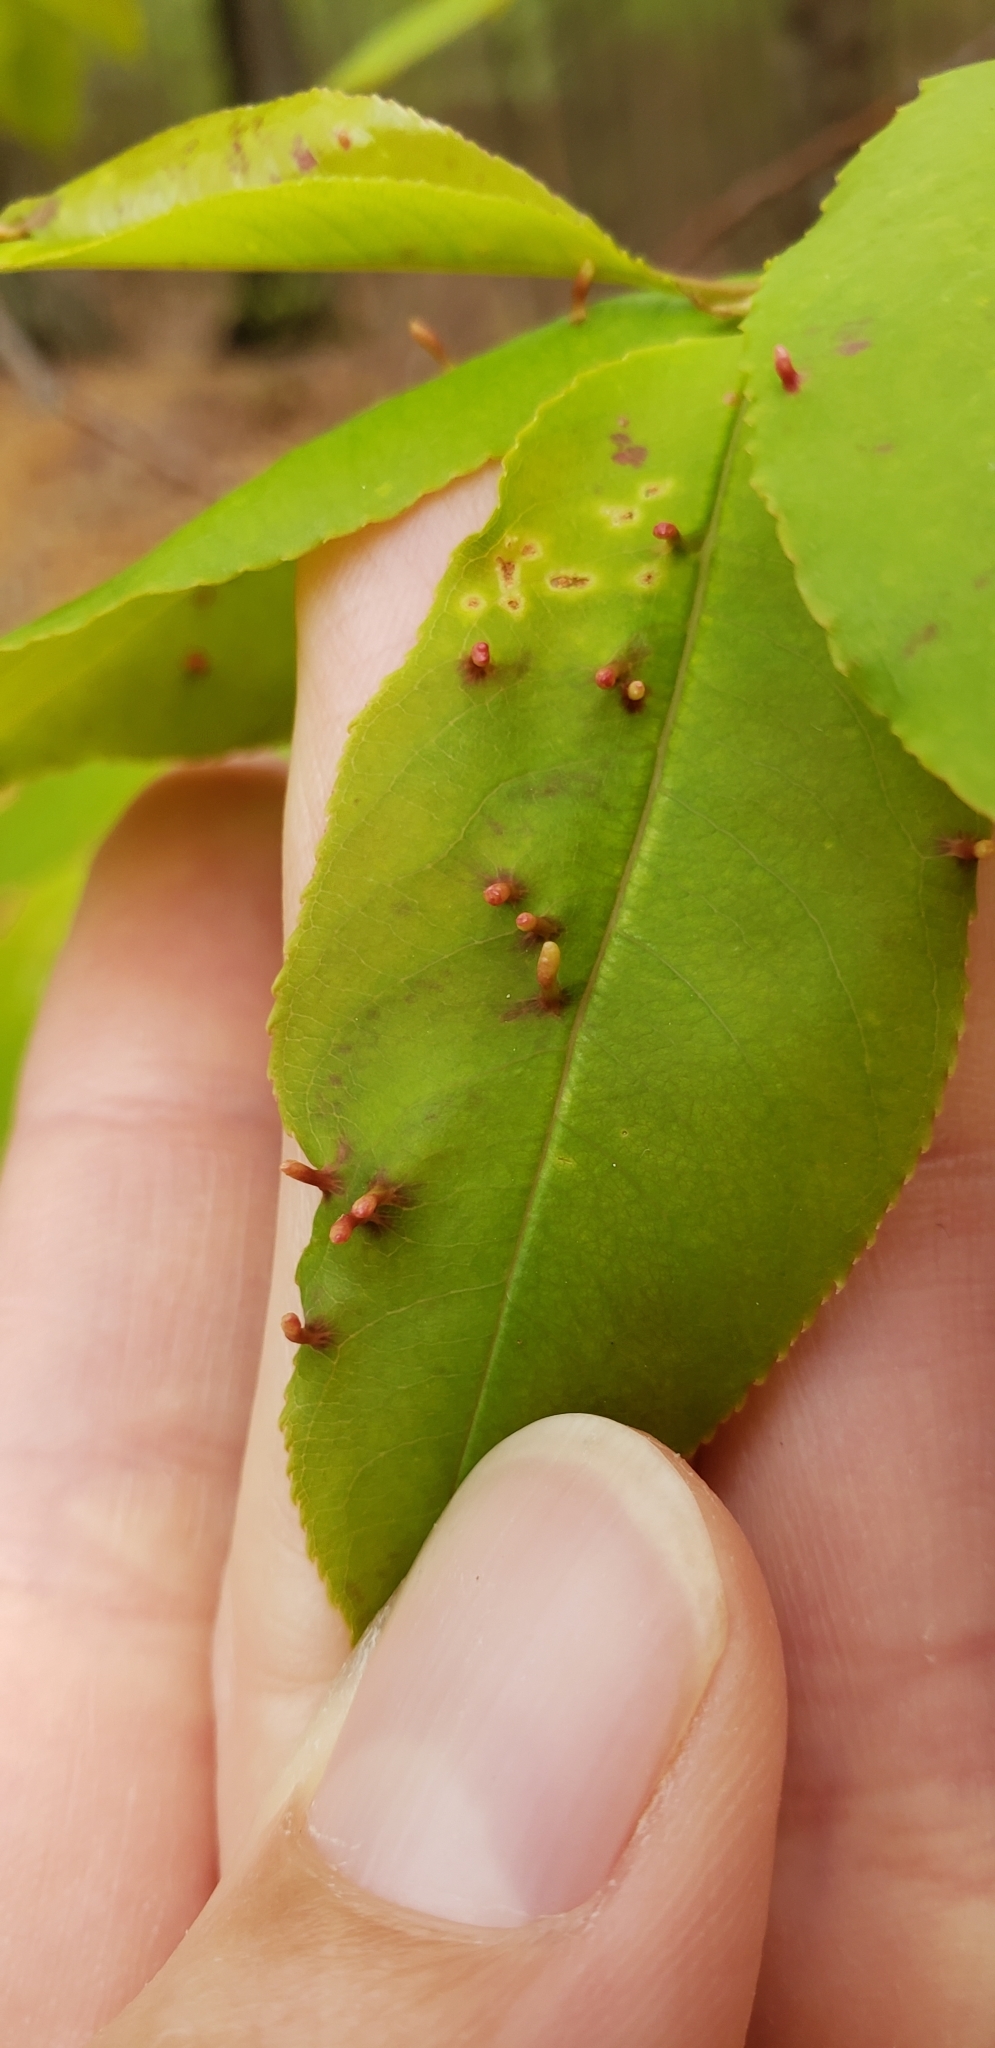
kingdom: Animalia
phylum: Arthropoda
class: Arachnida
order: Trombidiformes
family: Eriophyidae
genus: Eriophyes
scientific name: Eriophyes
